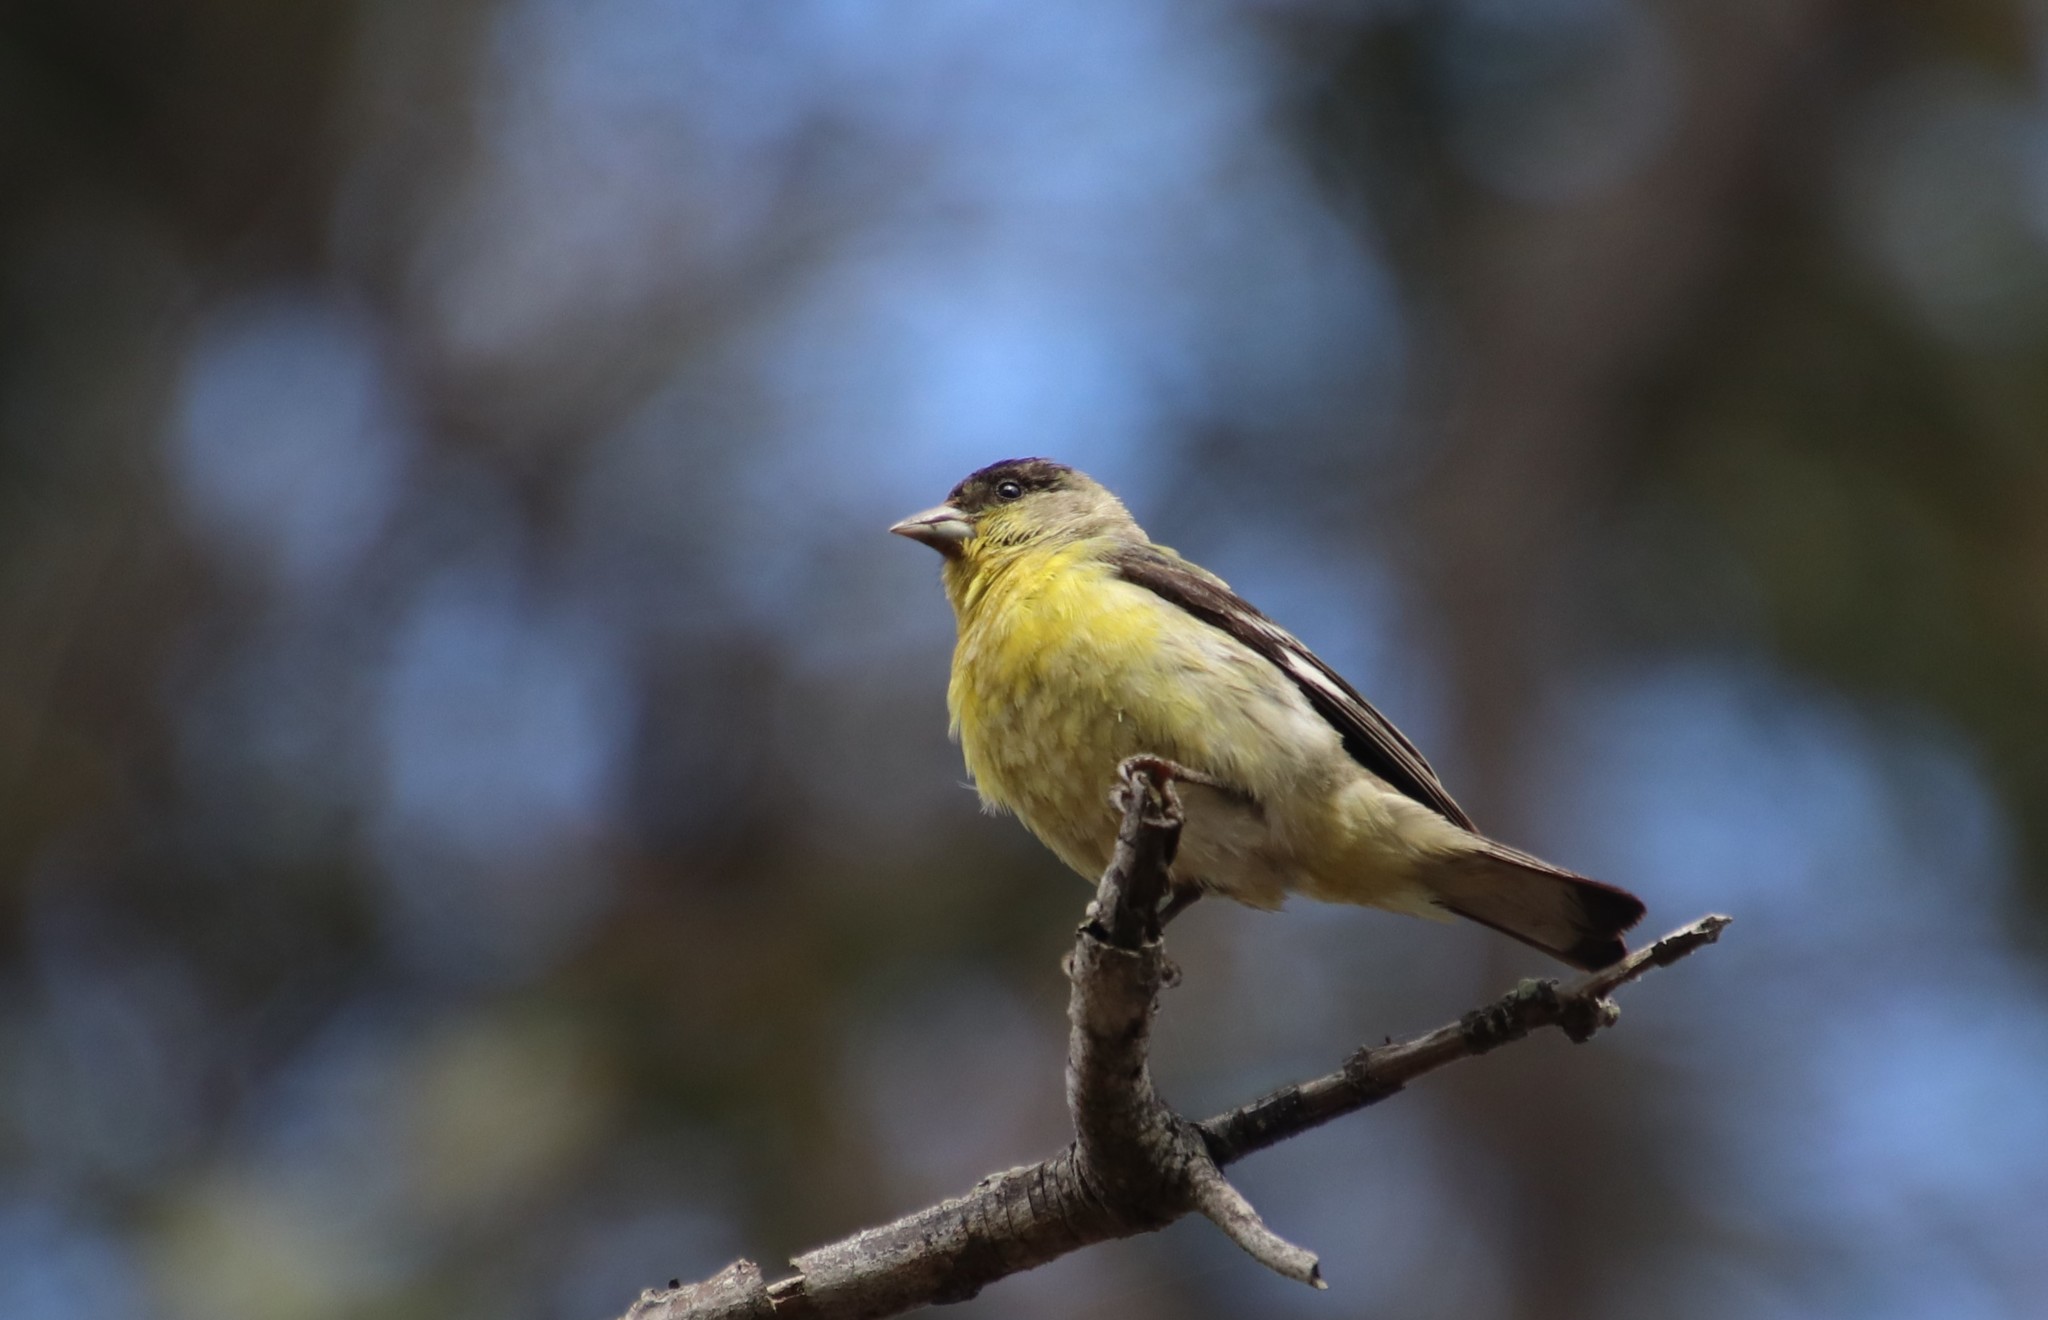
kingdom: Animalia
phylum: Chordata
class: Aves
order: Passeriformes
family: Fringillidae
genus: Spinus
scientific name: Spinus psaltria
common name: Lesser goldfinch
